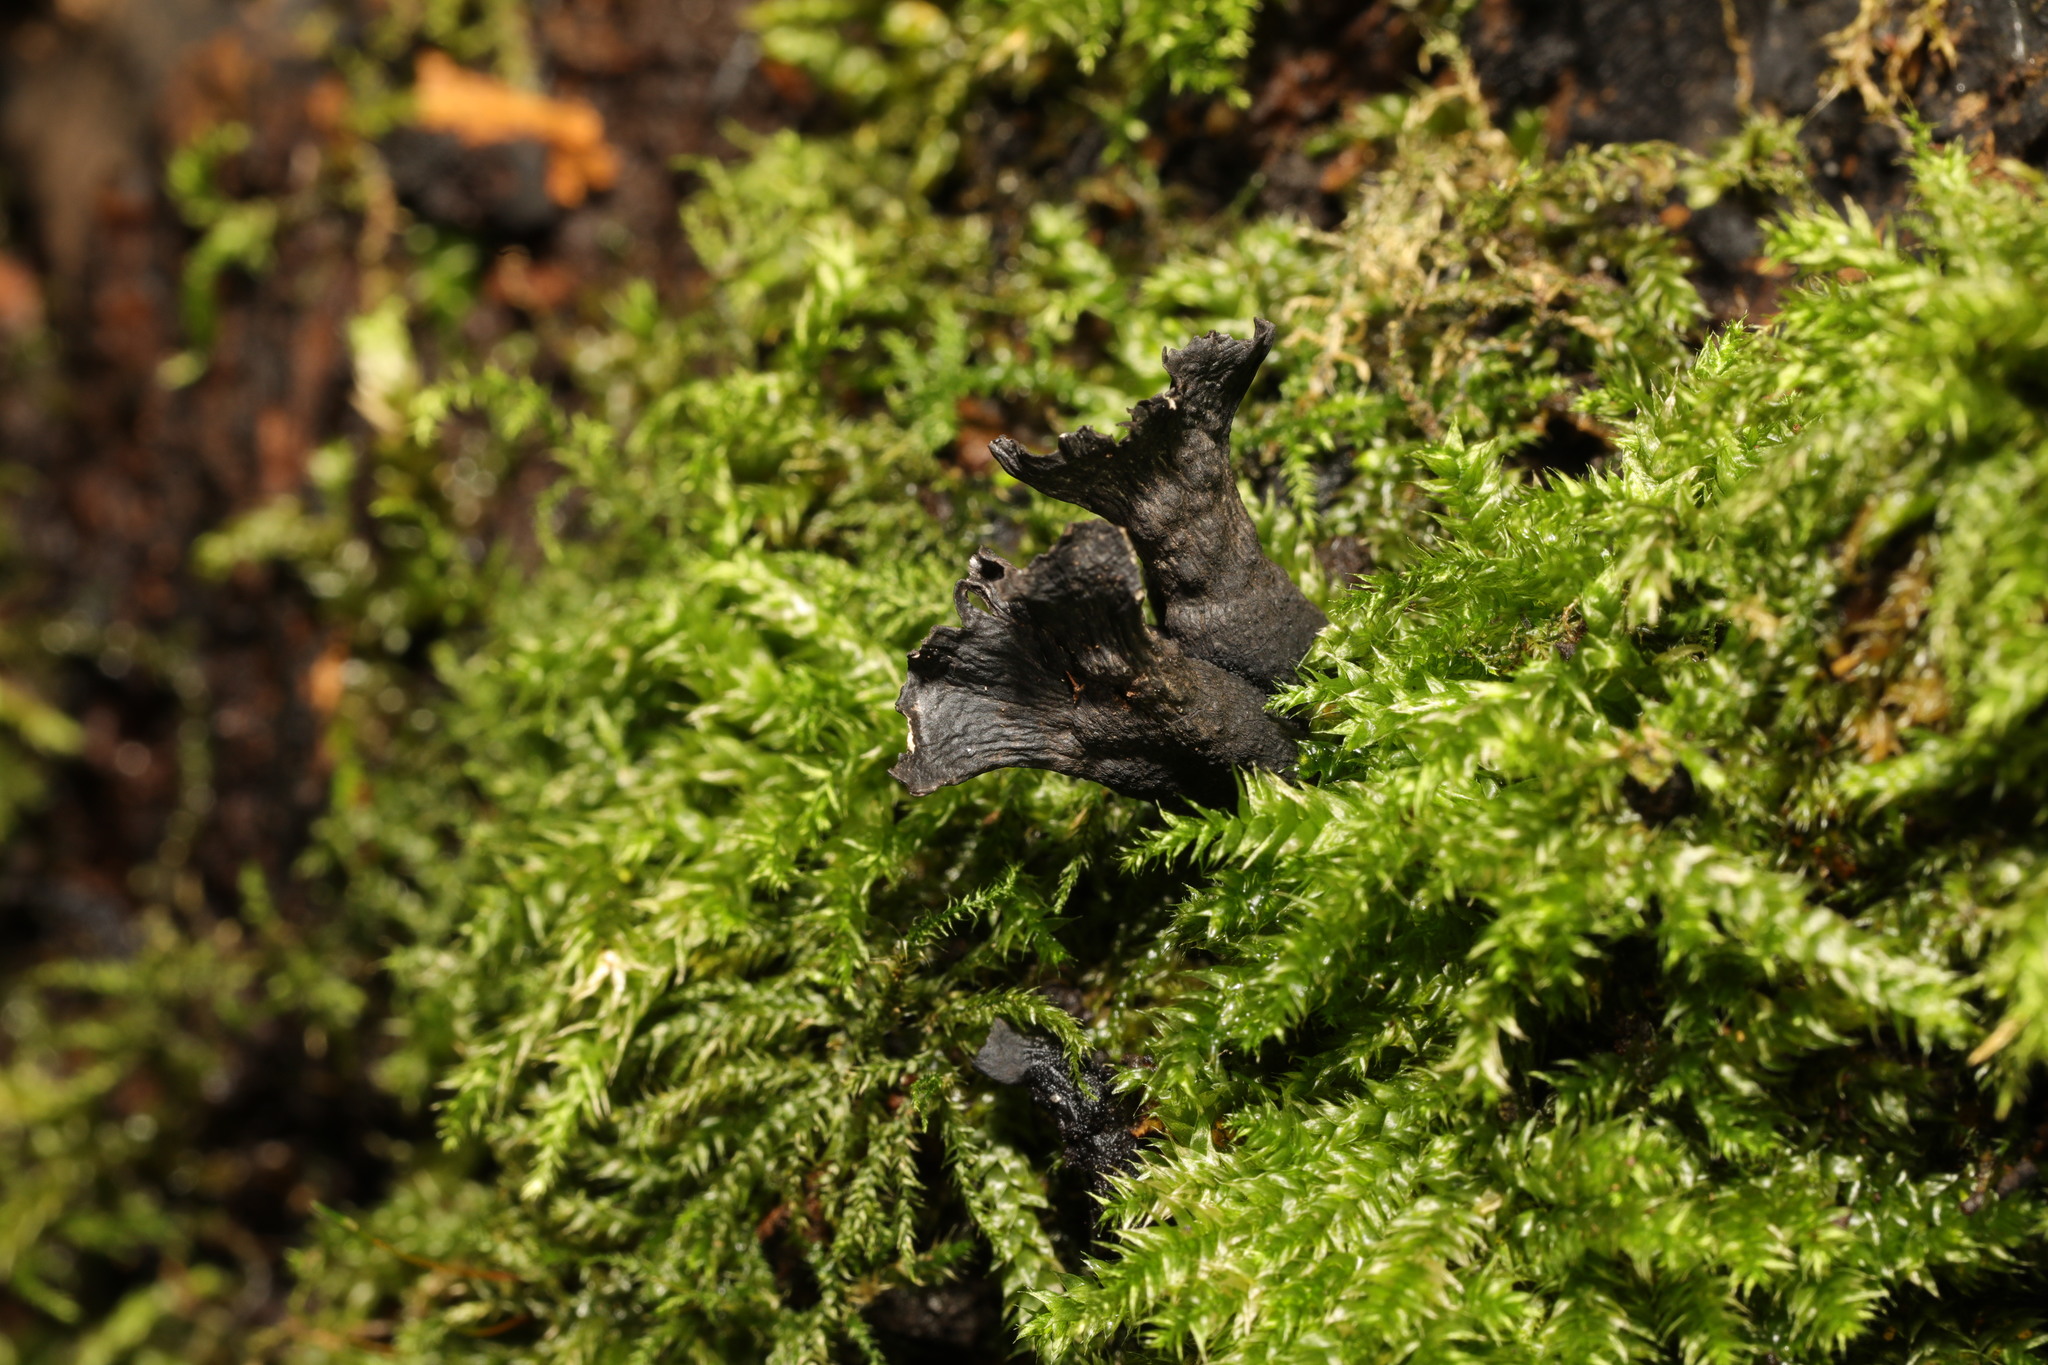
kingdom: Fungi
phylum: Ascomycota
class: Sordariomycetes
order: Xylariales
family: Xylariaceae
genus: Xylaria
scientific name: Xylaria hypoxylon
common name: Candle-snuff fungus
